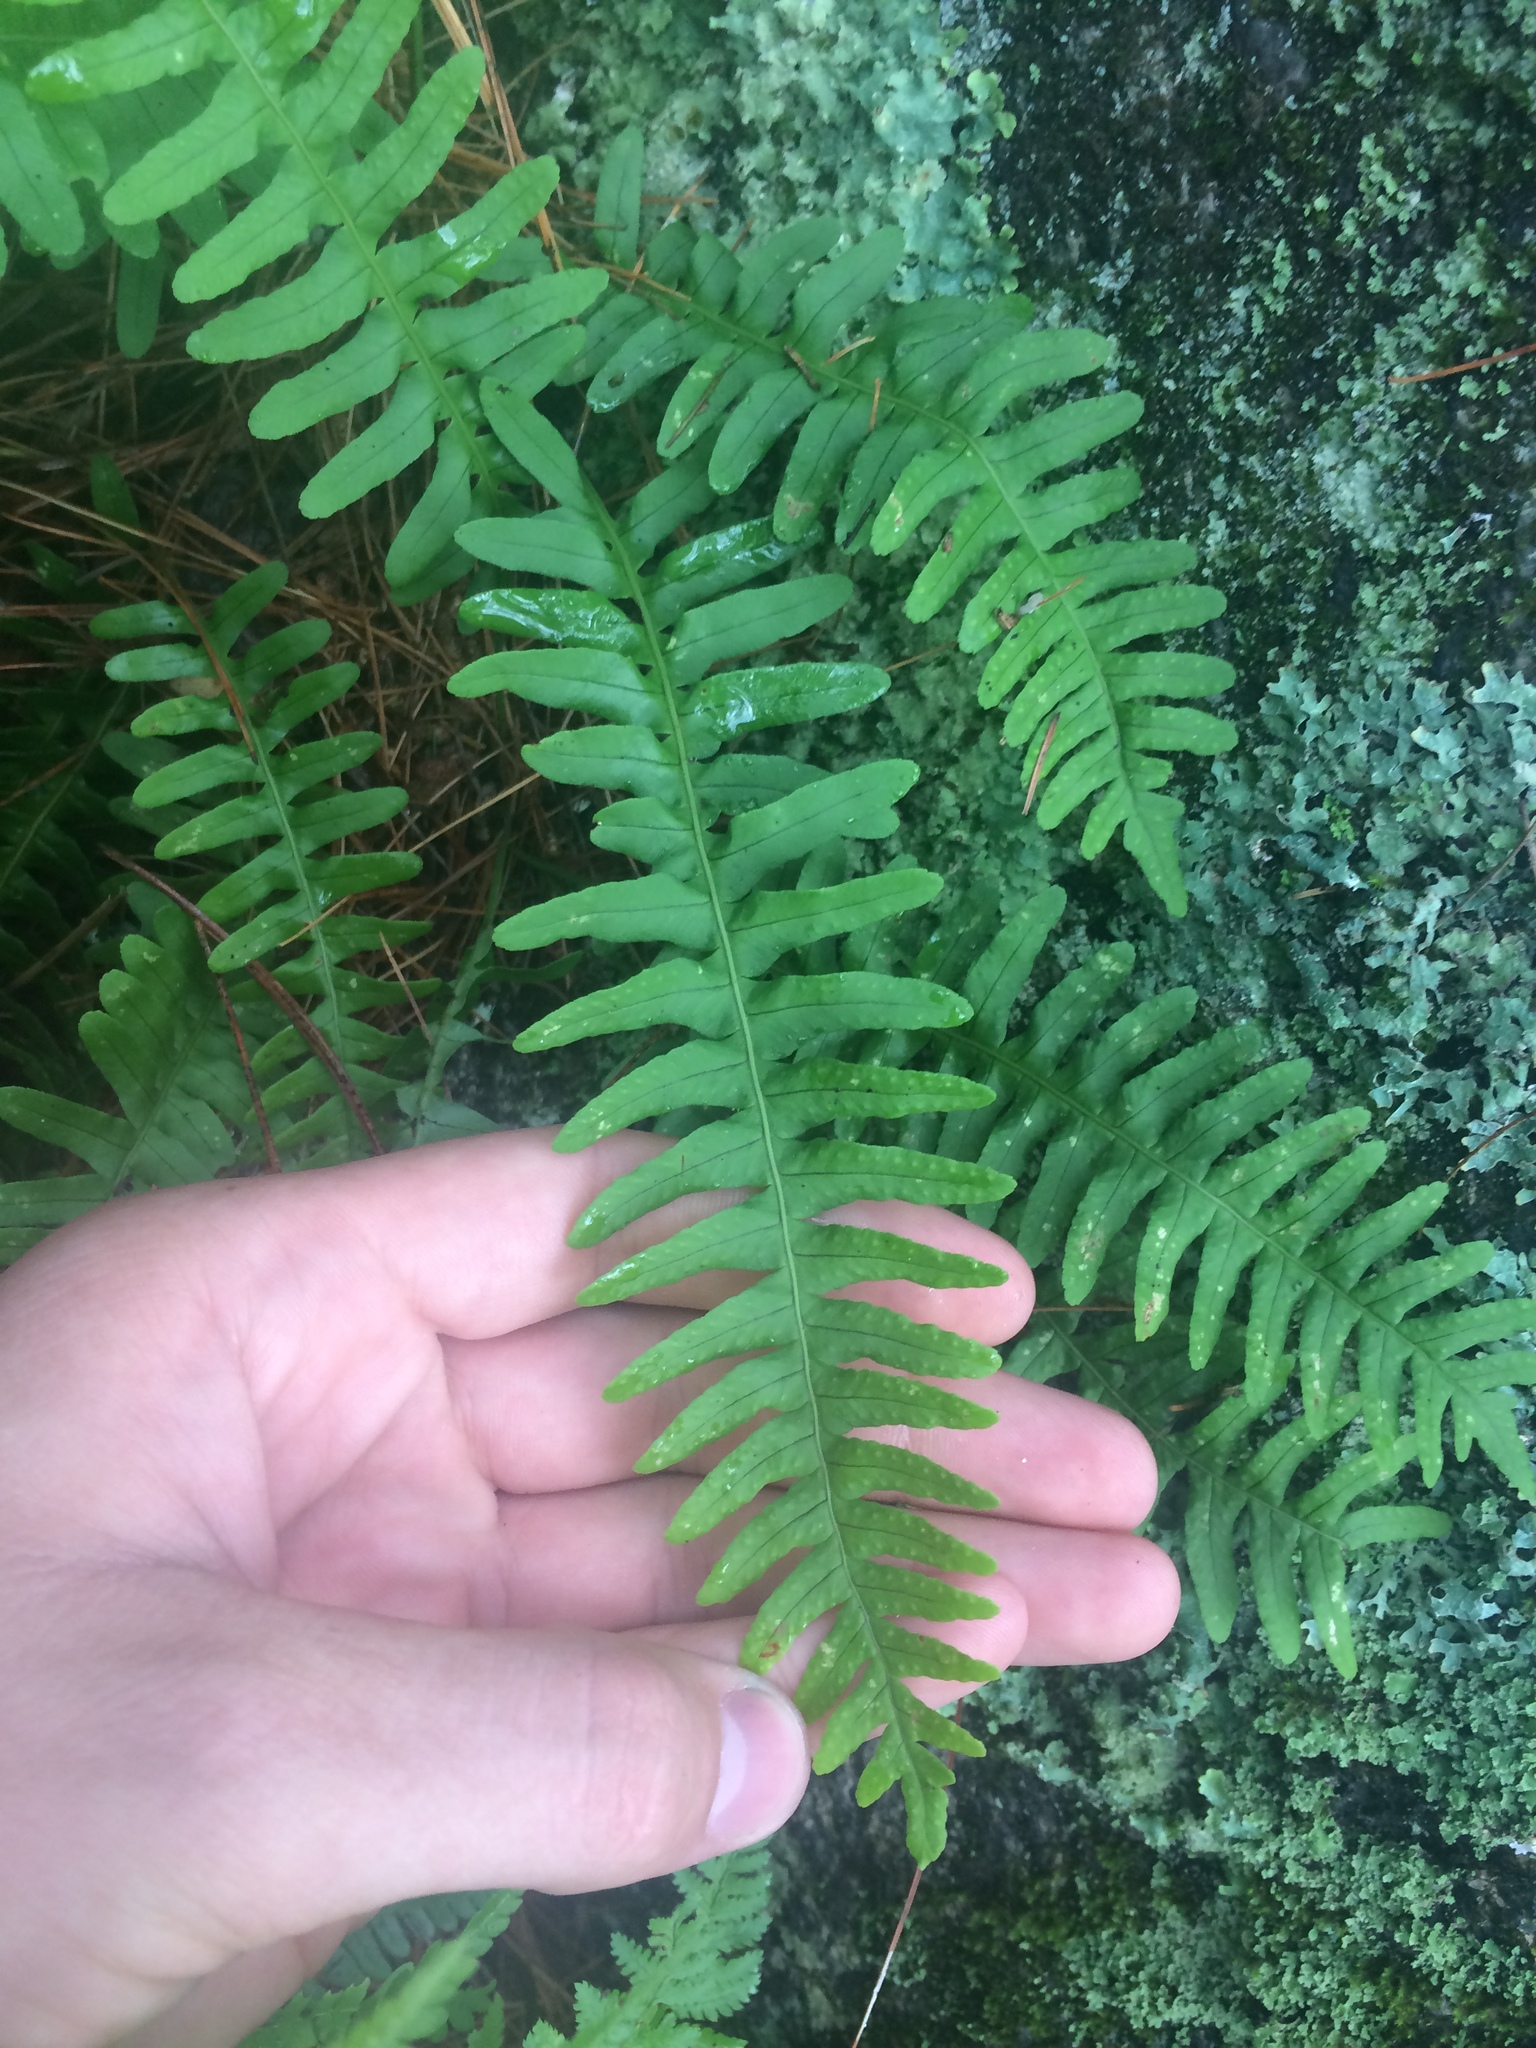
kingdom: Plantae
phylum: Tracheophyta
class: Polypodiopsida
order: Polypodiales
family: Polypodiaceae
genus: Polypodium
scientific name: Polypodium virginianum
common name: American wall fern
